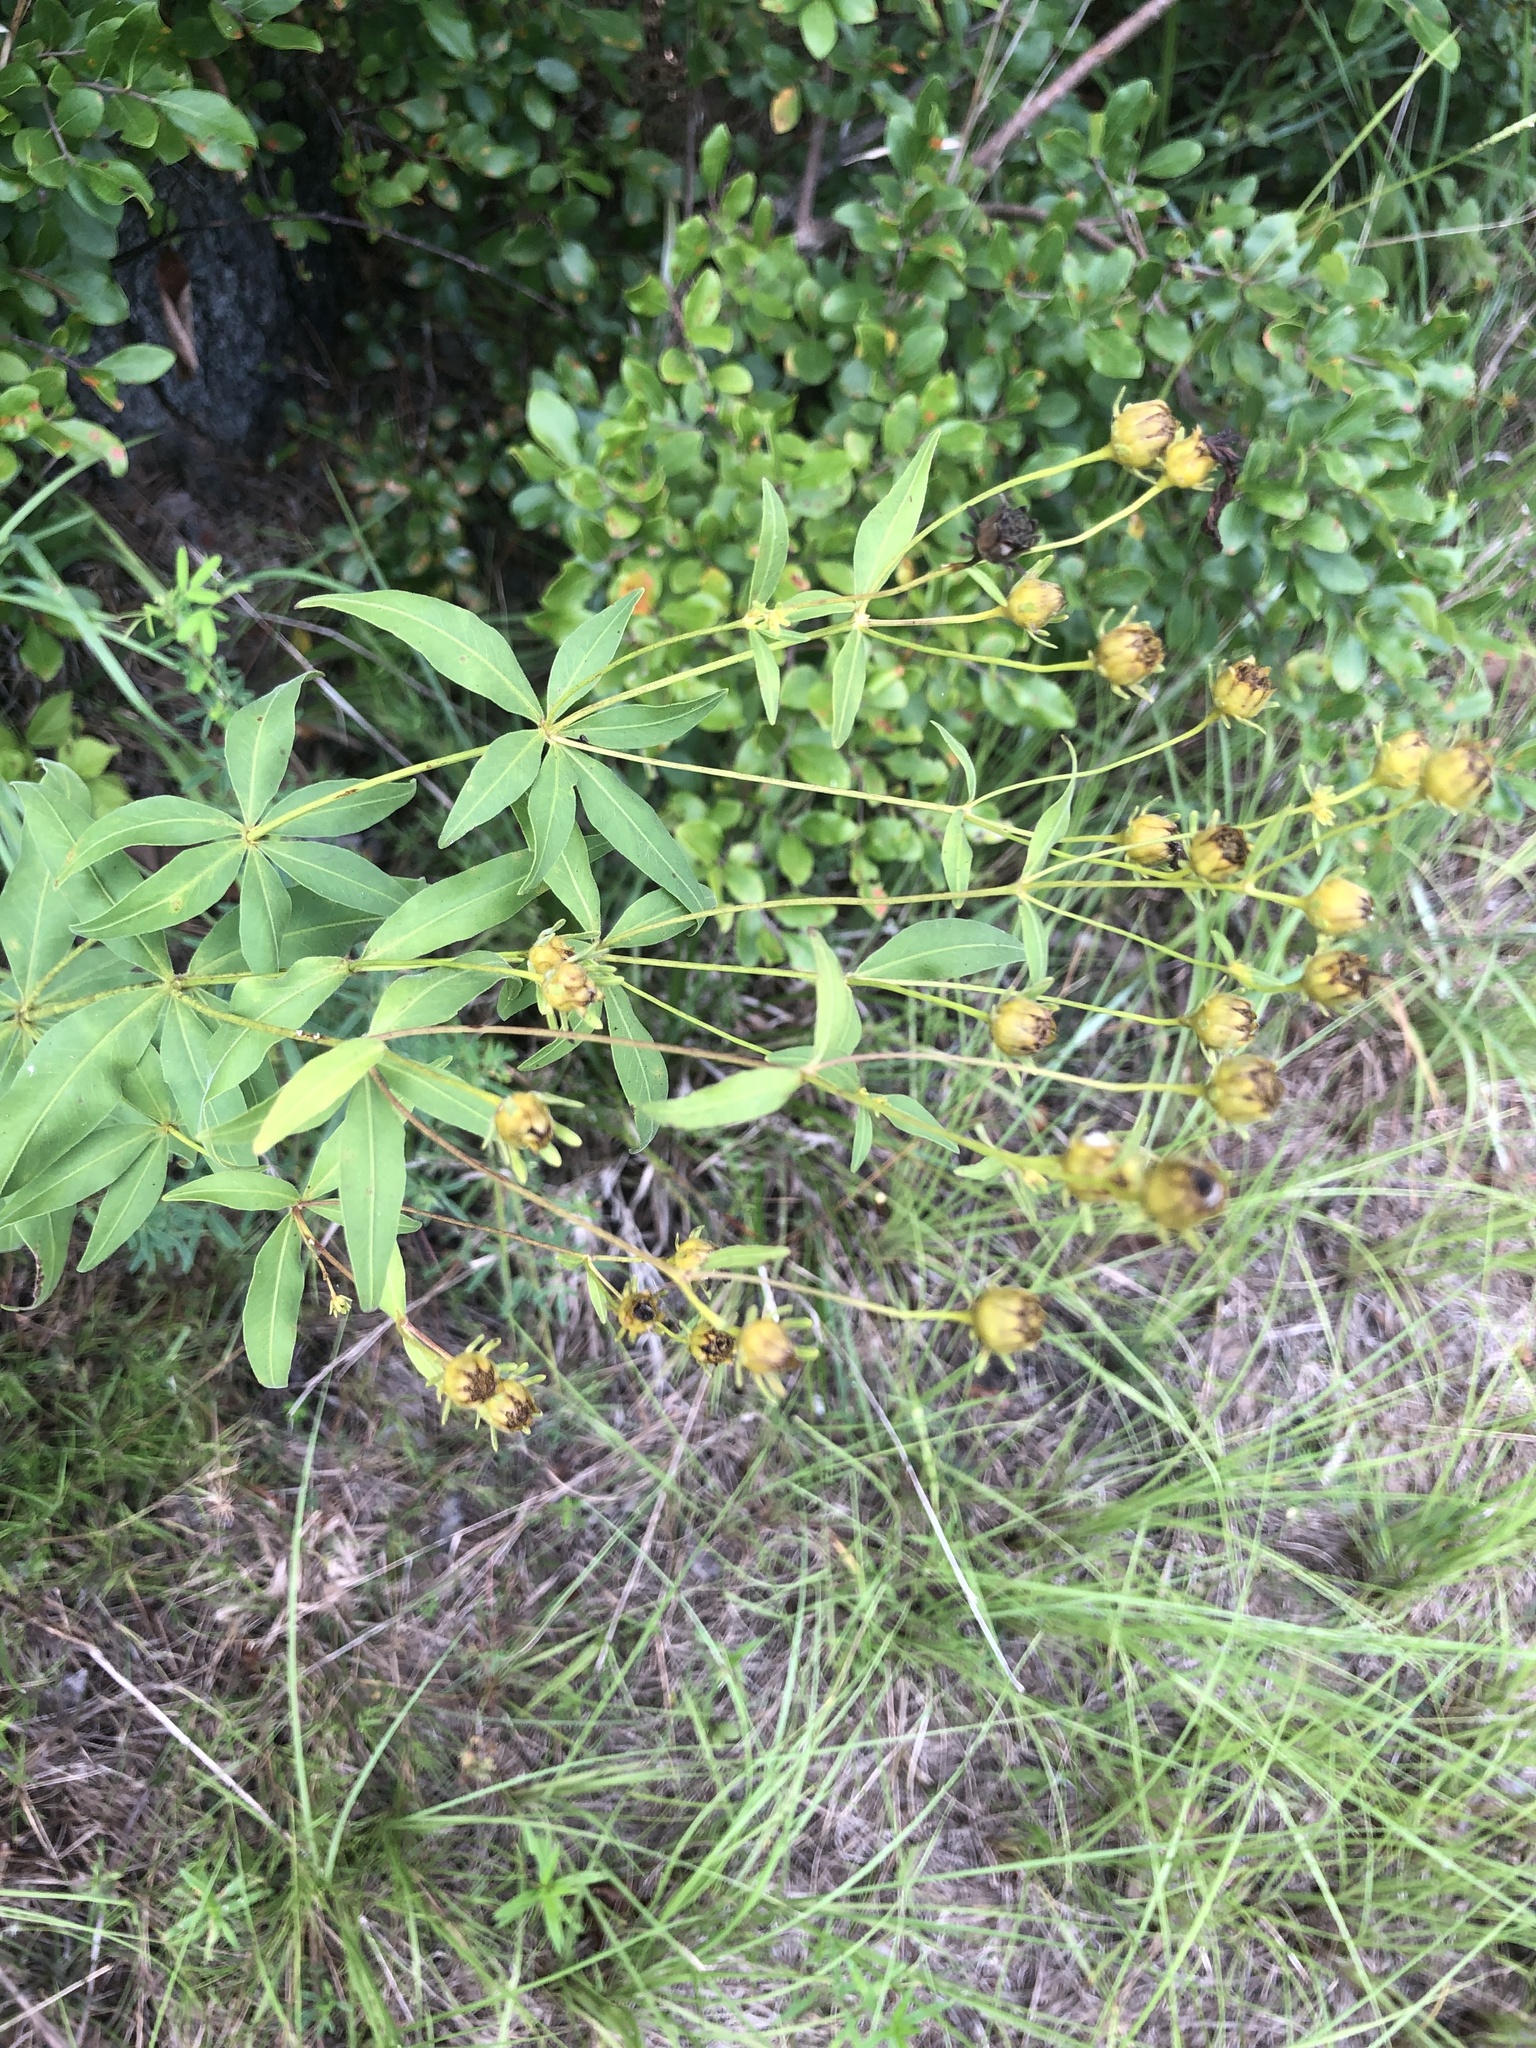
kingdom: Plantae
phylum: Tracheophyta
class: Magnoliopsida
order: Asterales
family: Asteraceae
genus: Coreopsis
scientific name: Coreopsis major
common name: Forest tickseed
